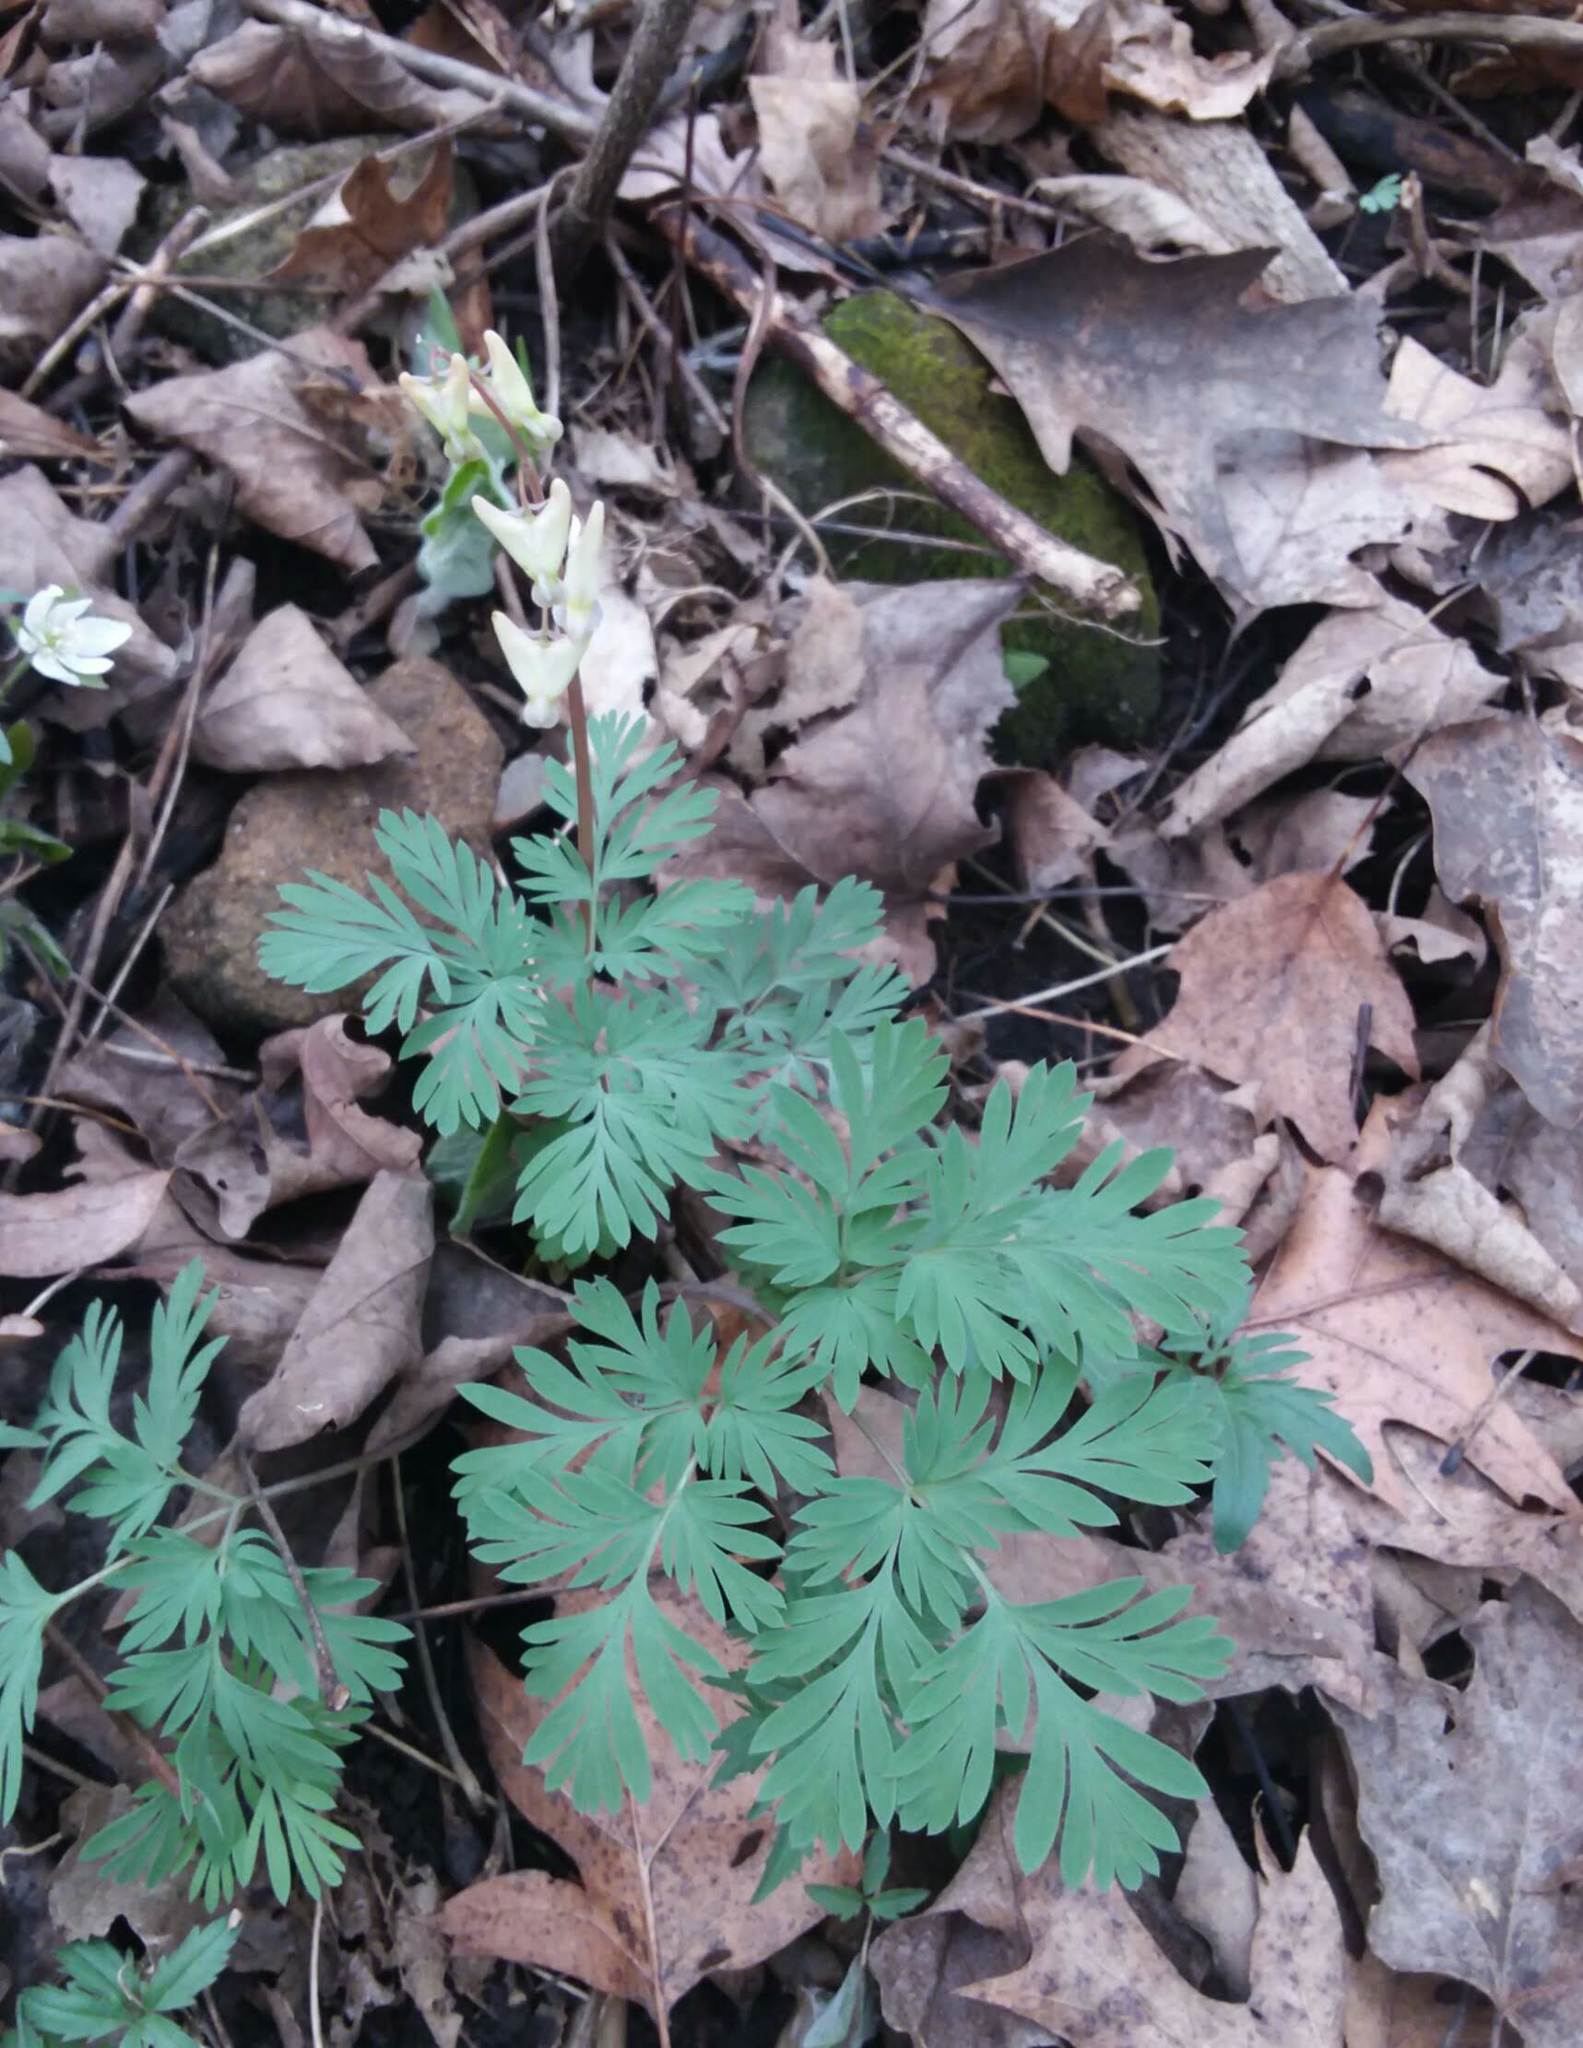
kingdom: Plantae
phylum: Tracheophyta
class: Magnoliopsida
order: Ranunculales
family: Papaveraceae
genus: Dicentra
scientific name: Dicentra cucullaria
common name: Dutchman's breeches
